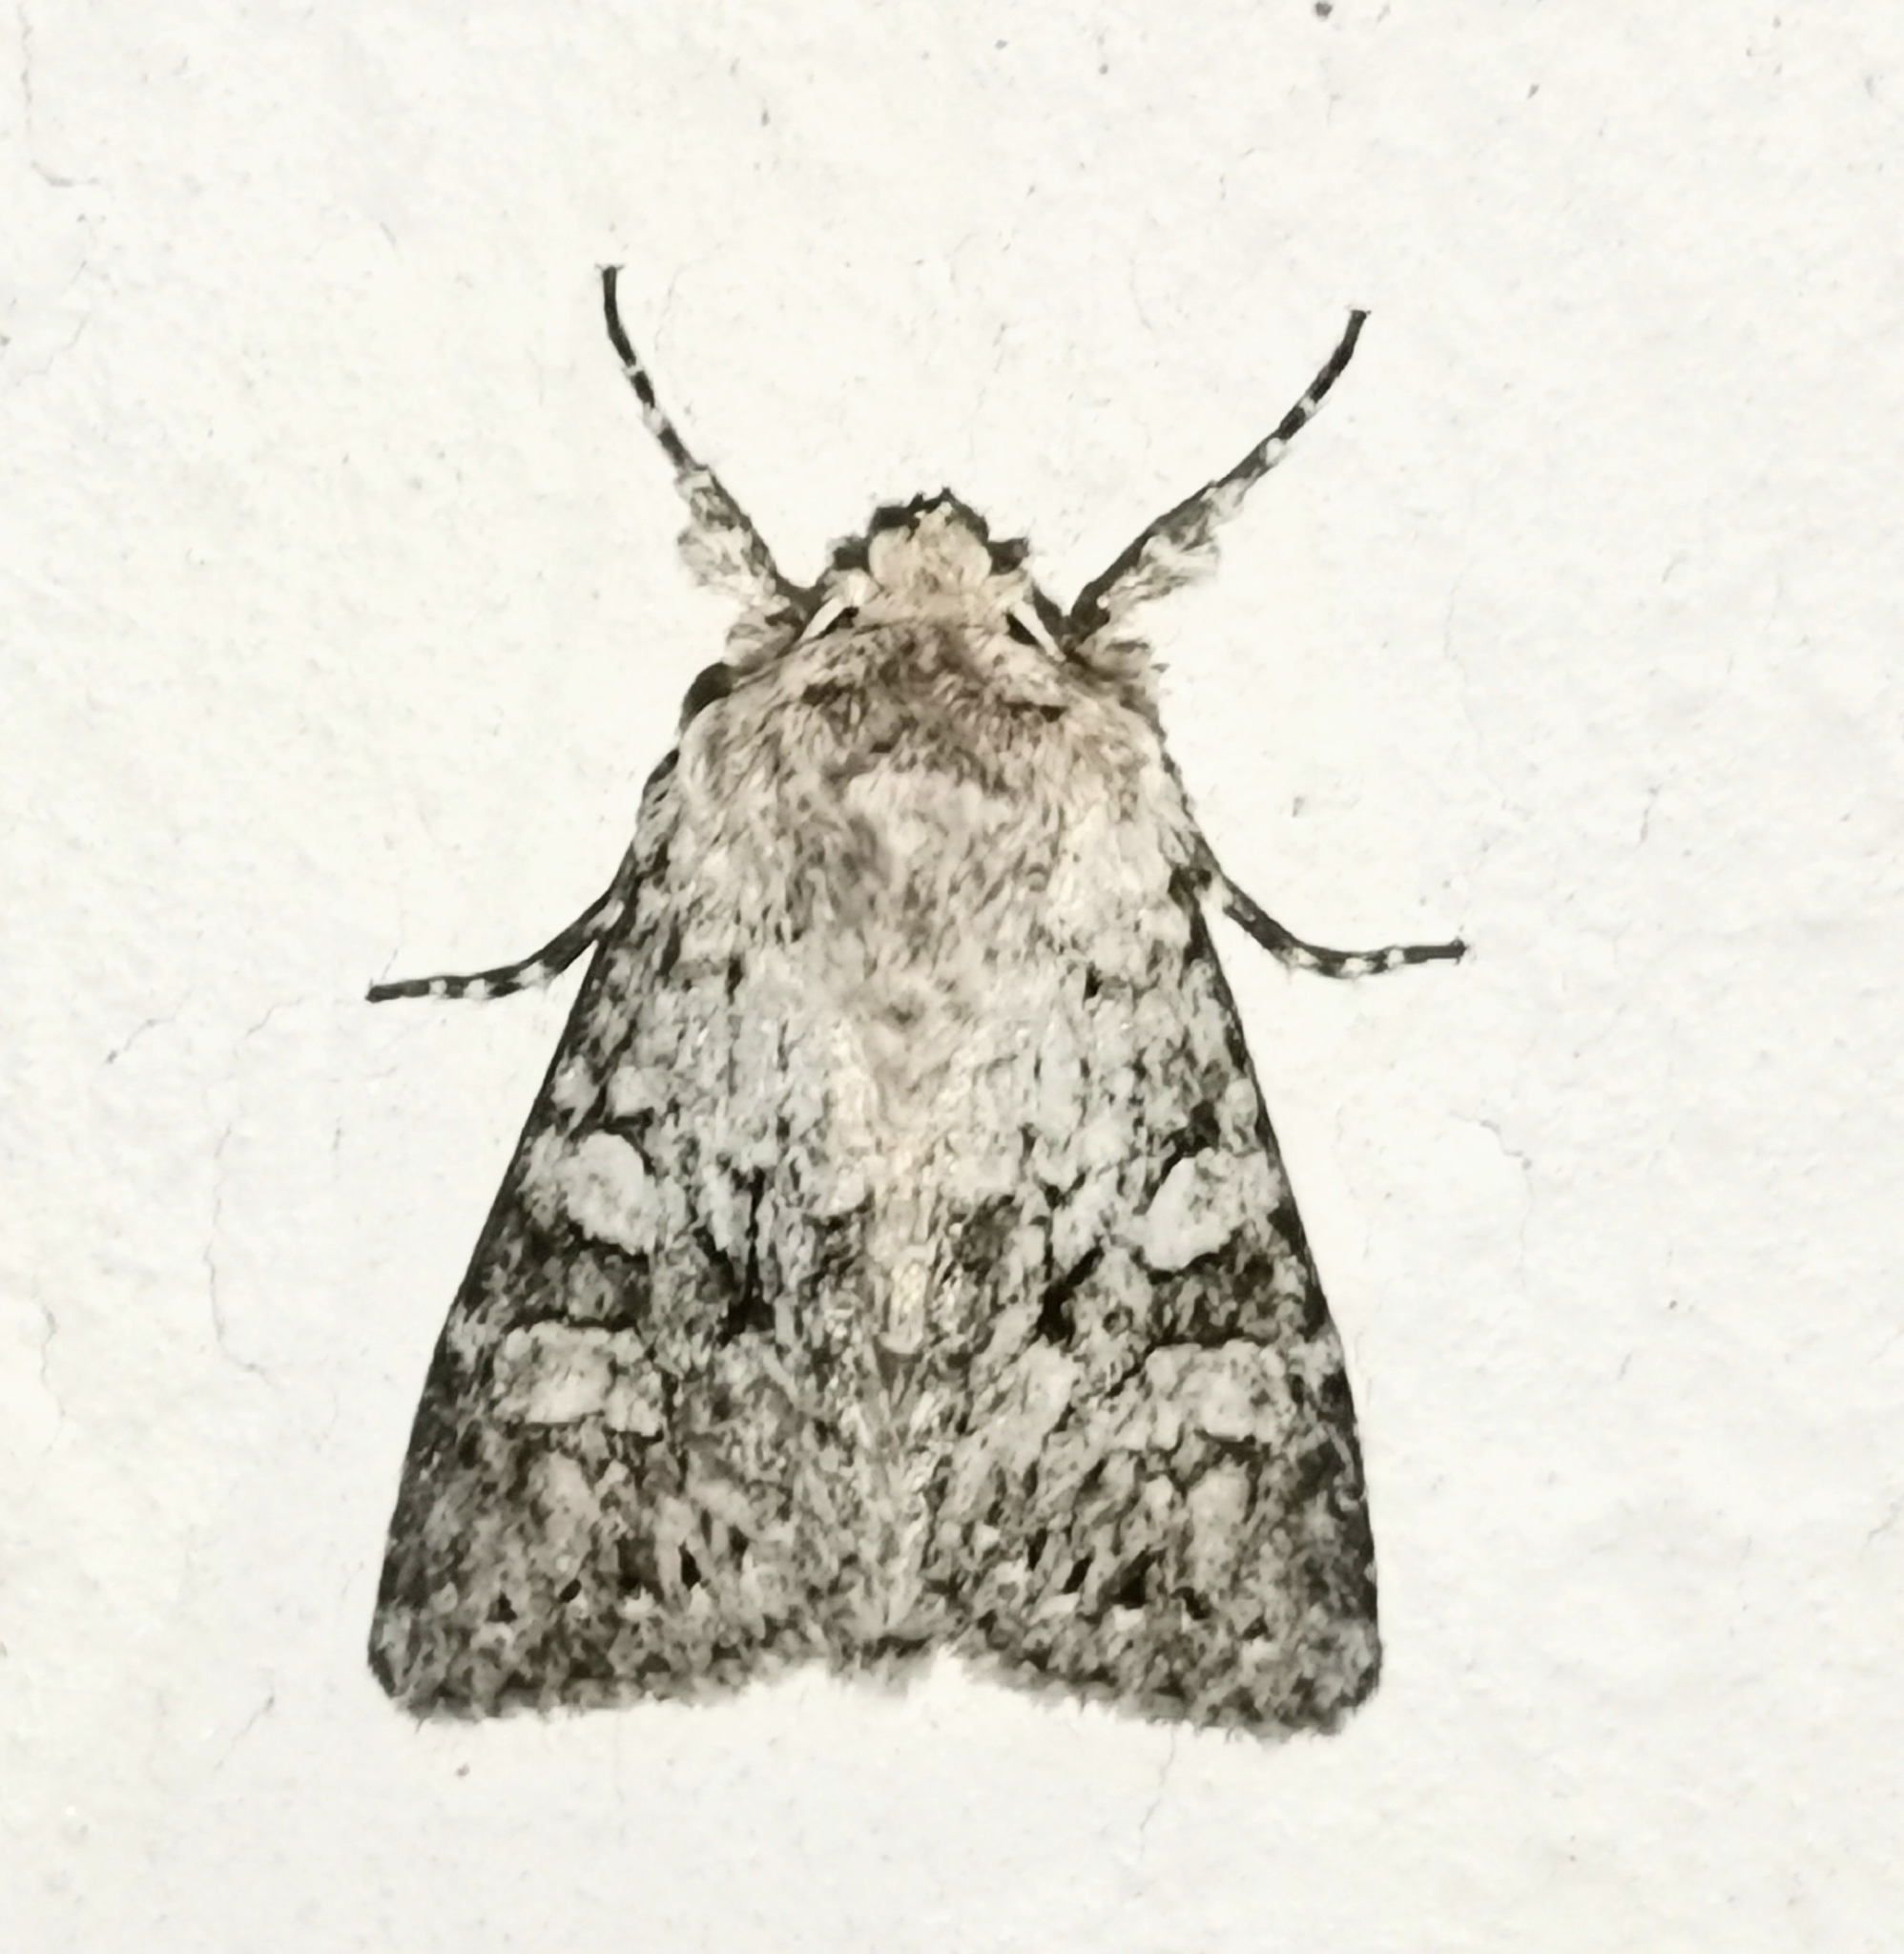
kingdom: Animalia
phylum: Arthropoda
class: Insecta
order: Lepidoptera
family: Noctuidae
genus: Antitype
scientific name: Antitype chi
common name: Grey chi
